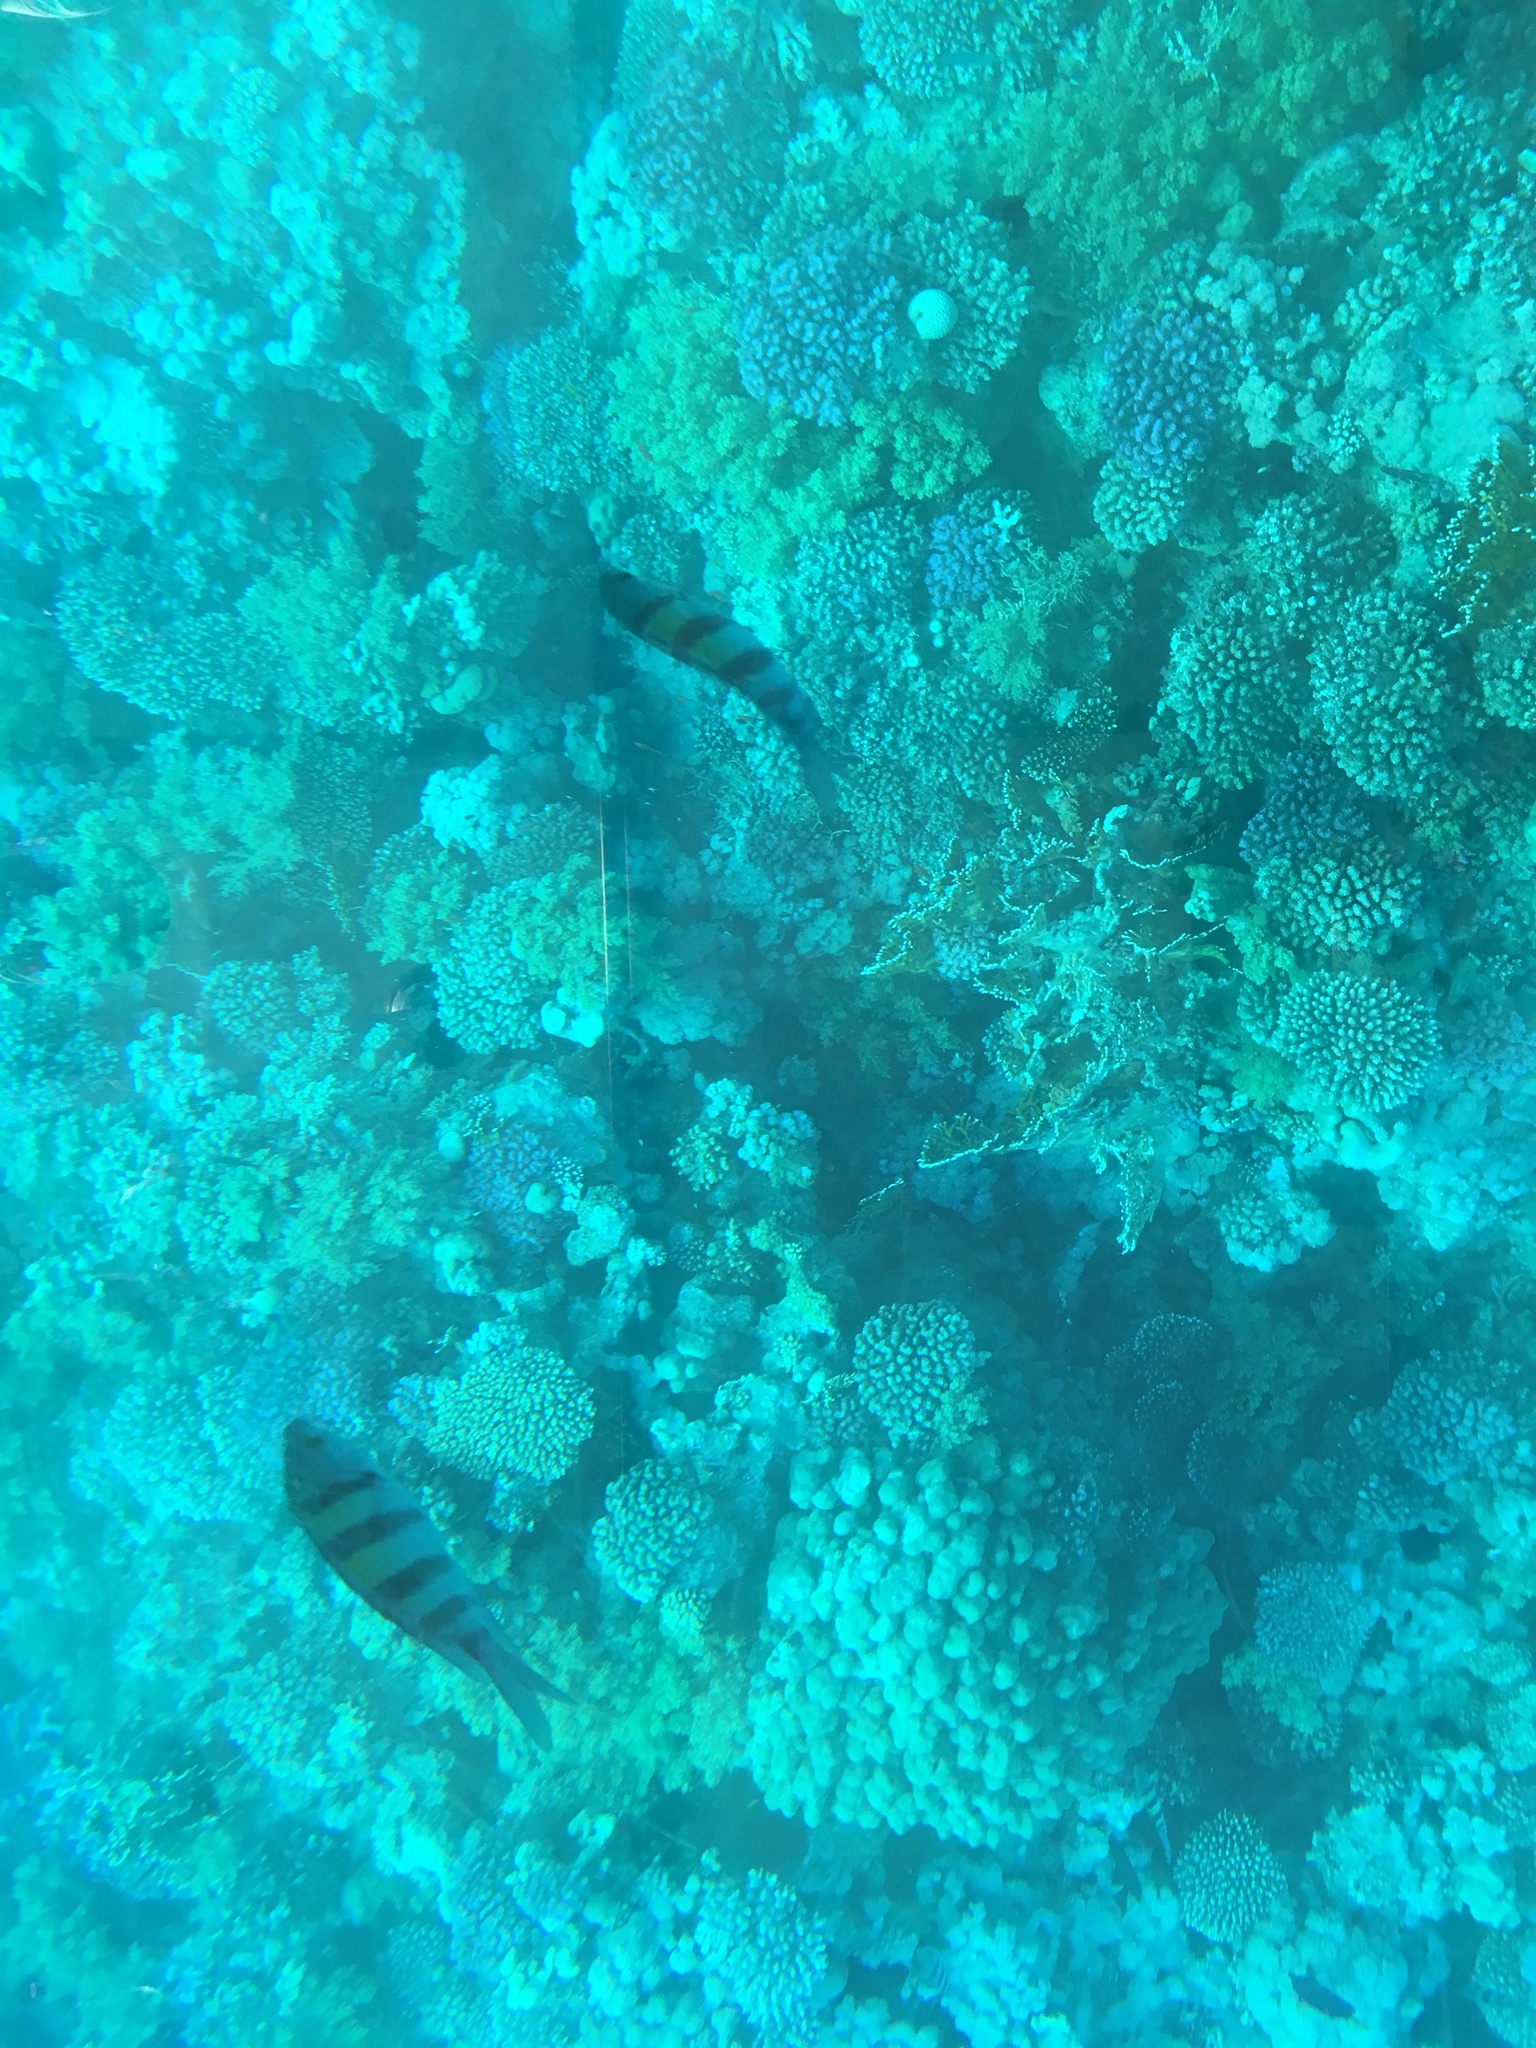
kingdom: Animalia
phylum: Chordata
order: Perciformes
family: Pomacentridae
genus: Abudefduf
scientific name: Abudefduf vaigiensis
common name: Indo-pacific sergeant
